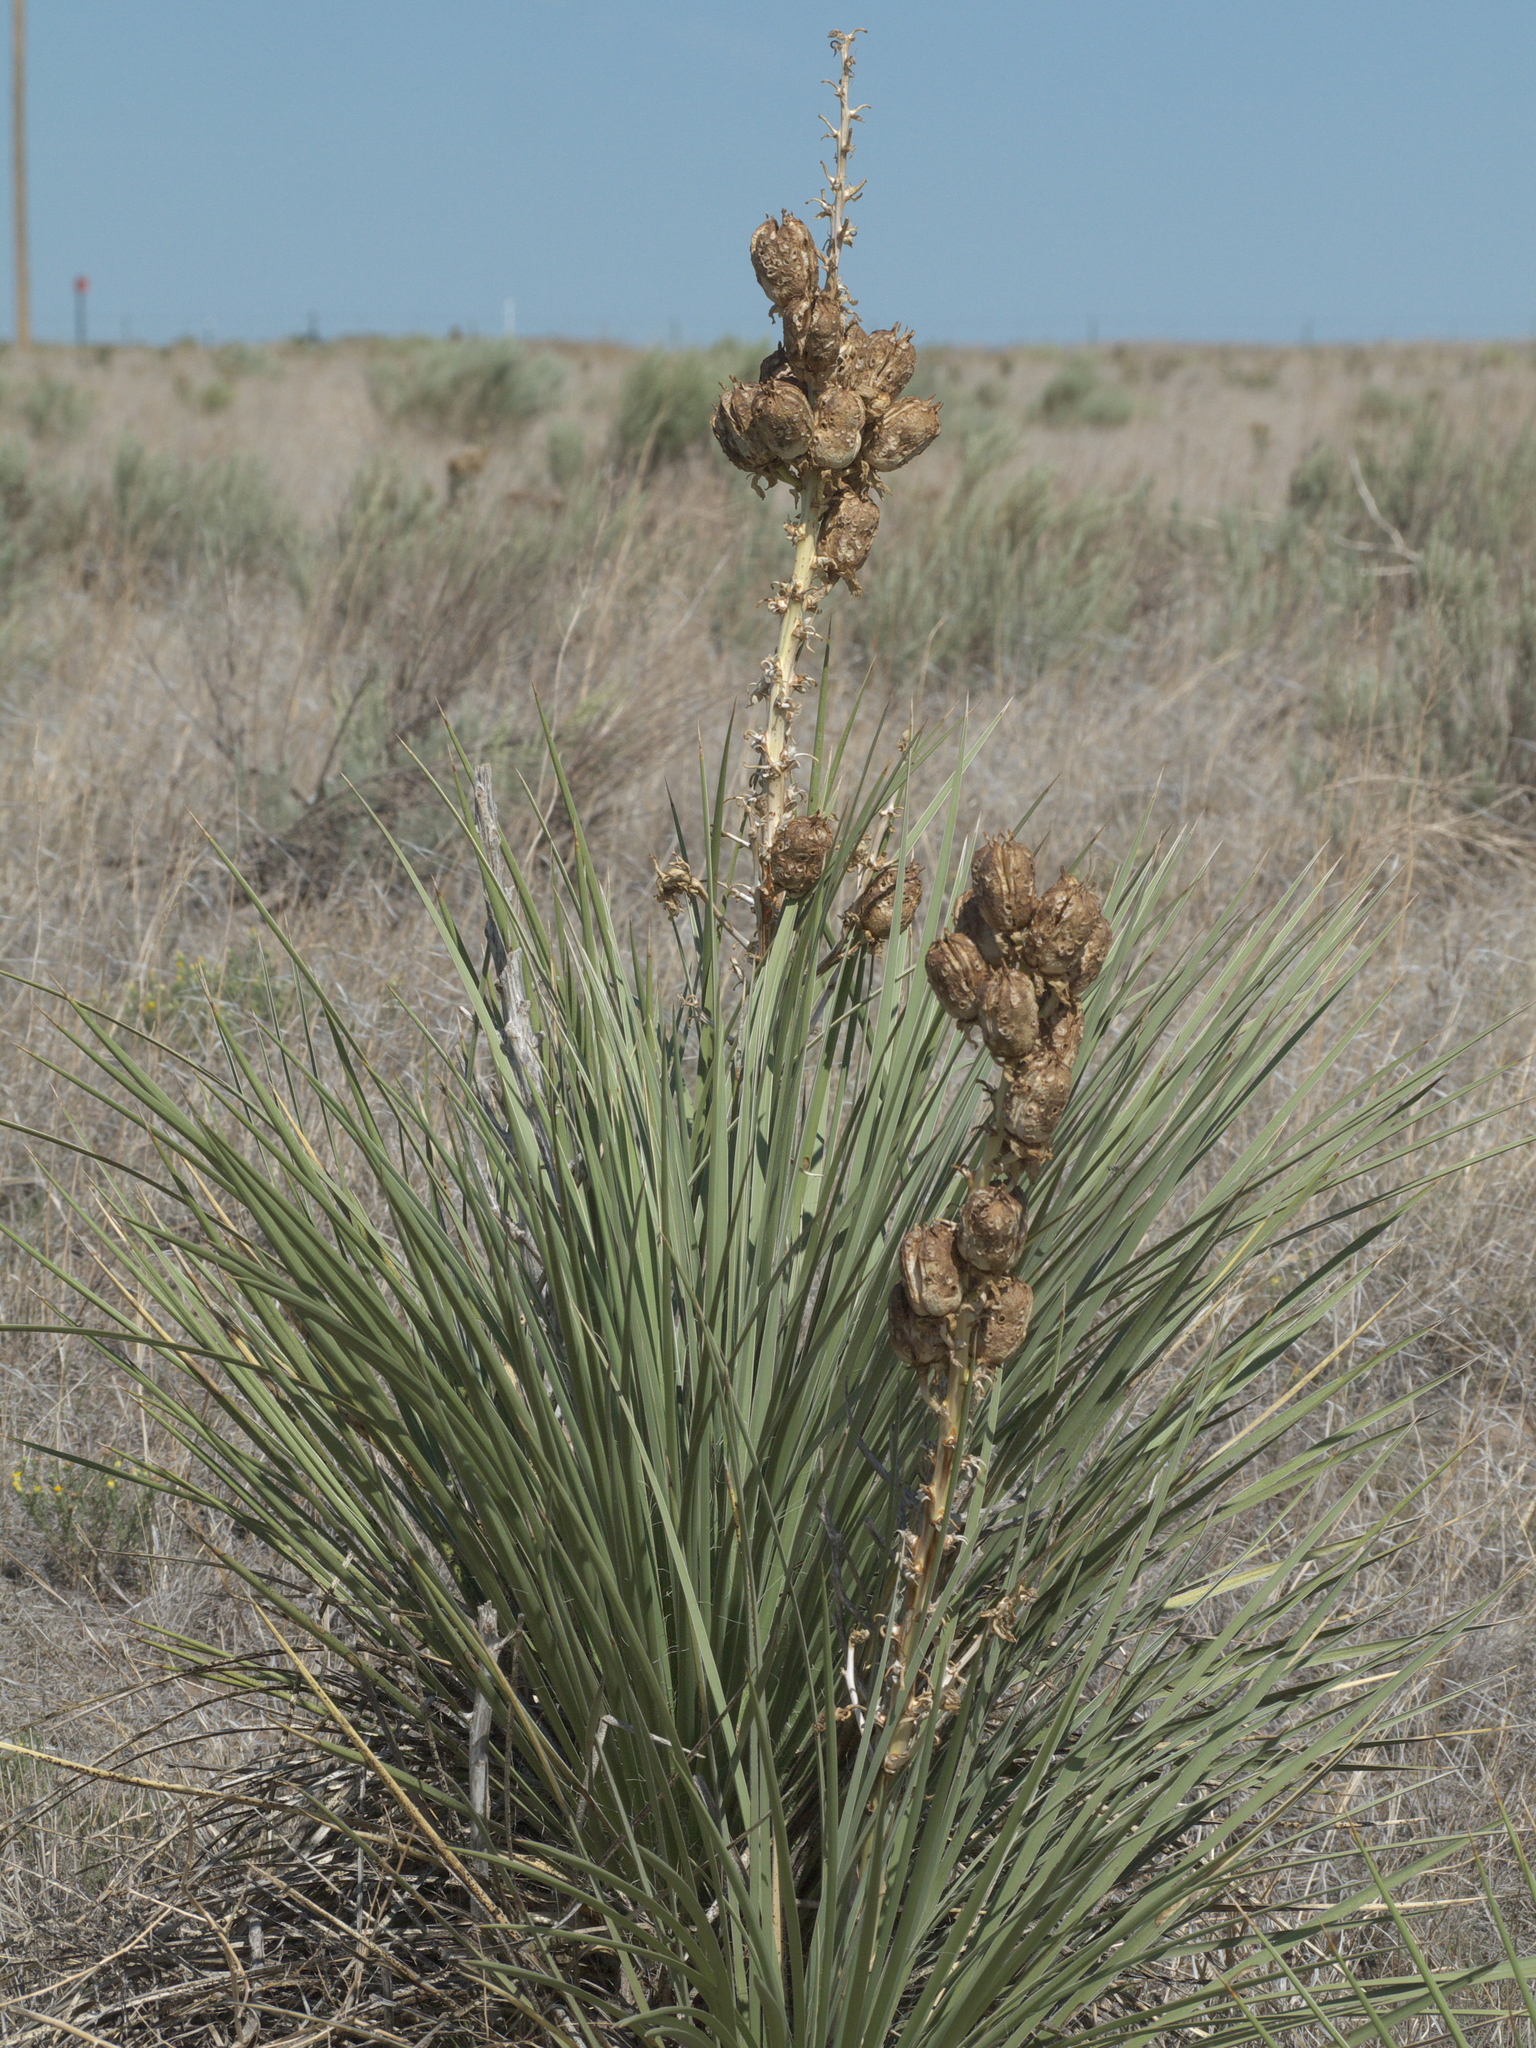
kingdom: Plantae
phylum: Tracheophyta
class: Liliopsida
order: Asparagales
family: Asparagaceae
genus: Yucca
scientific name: Yucca glauca
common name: Great plains yucca
